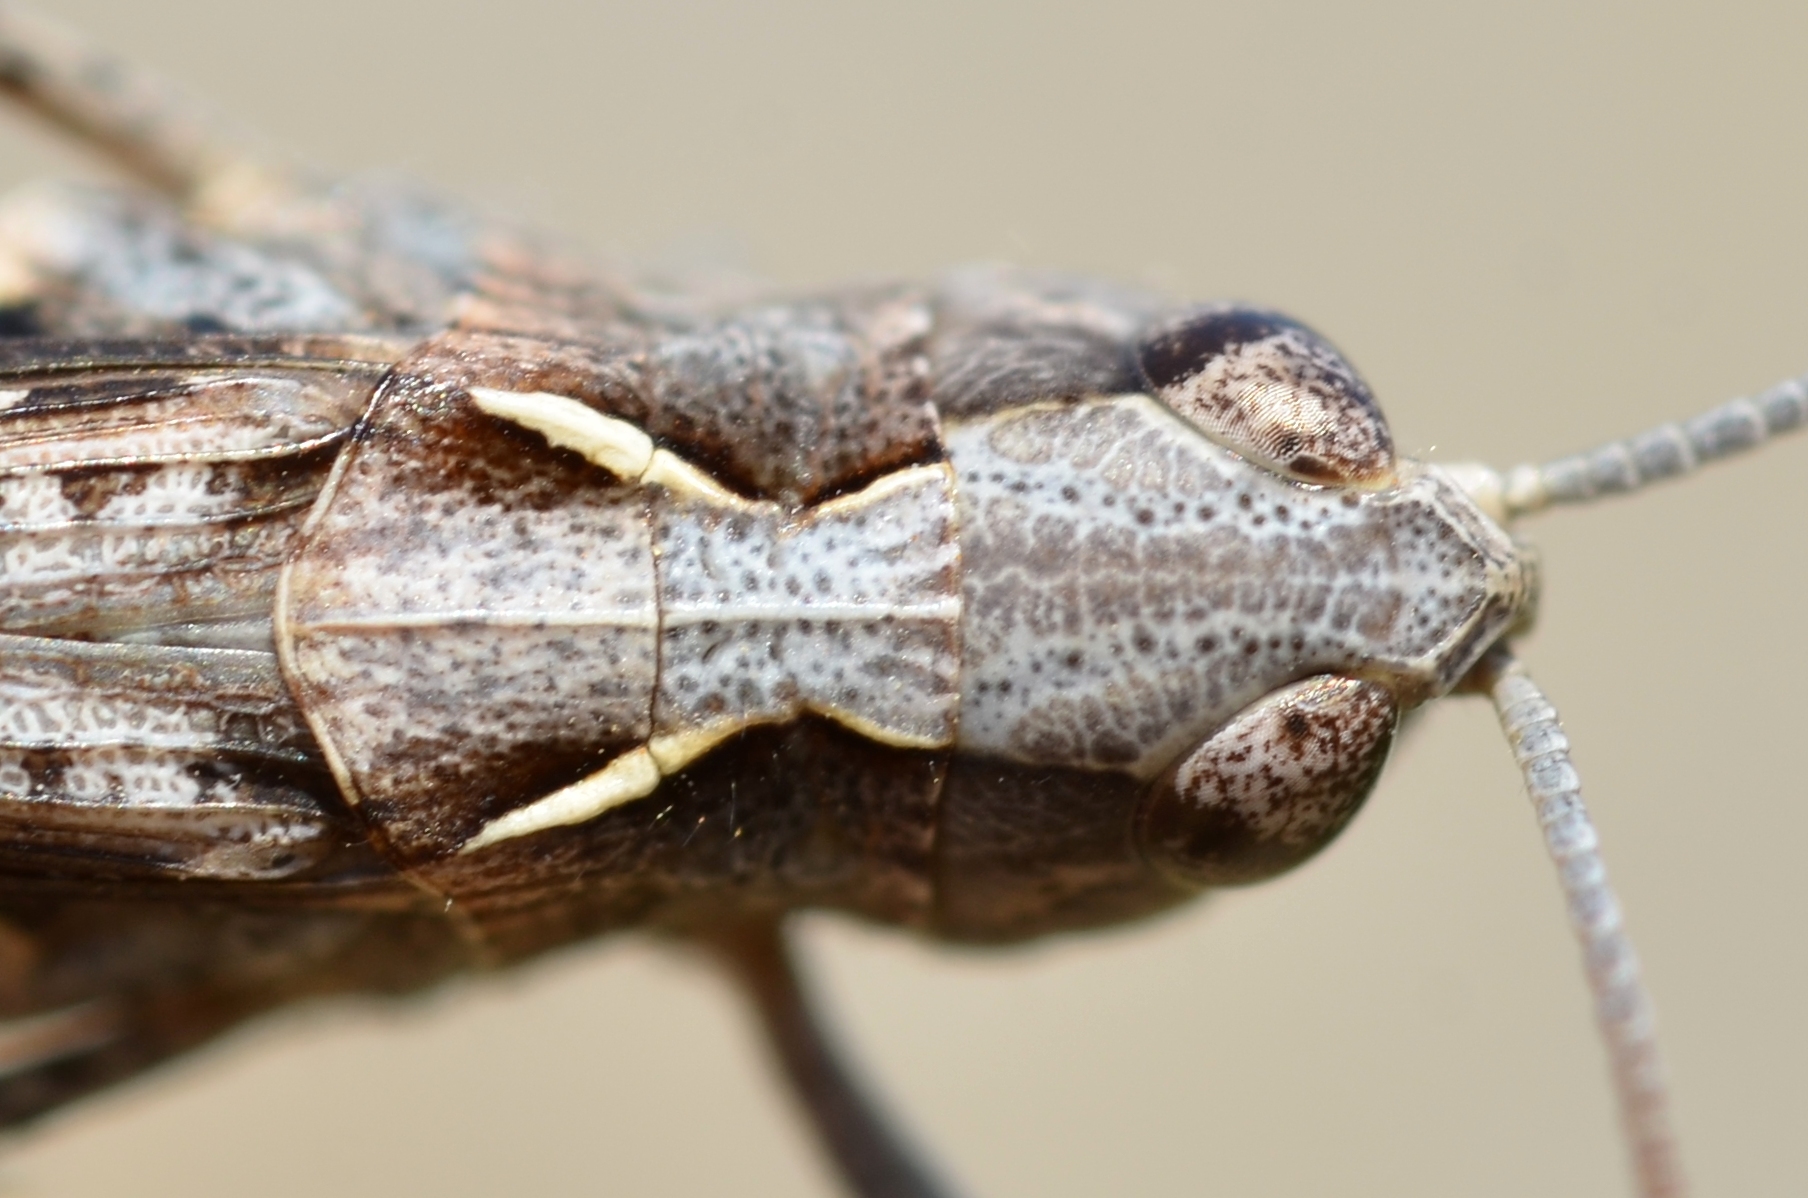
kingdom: Animalia
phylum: Arthropoda
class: Insecta
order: Orthoptera
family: Acrididae
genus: Omocestus
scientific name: Omocestus raymondi
